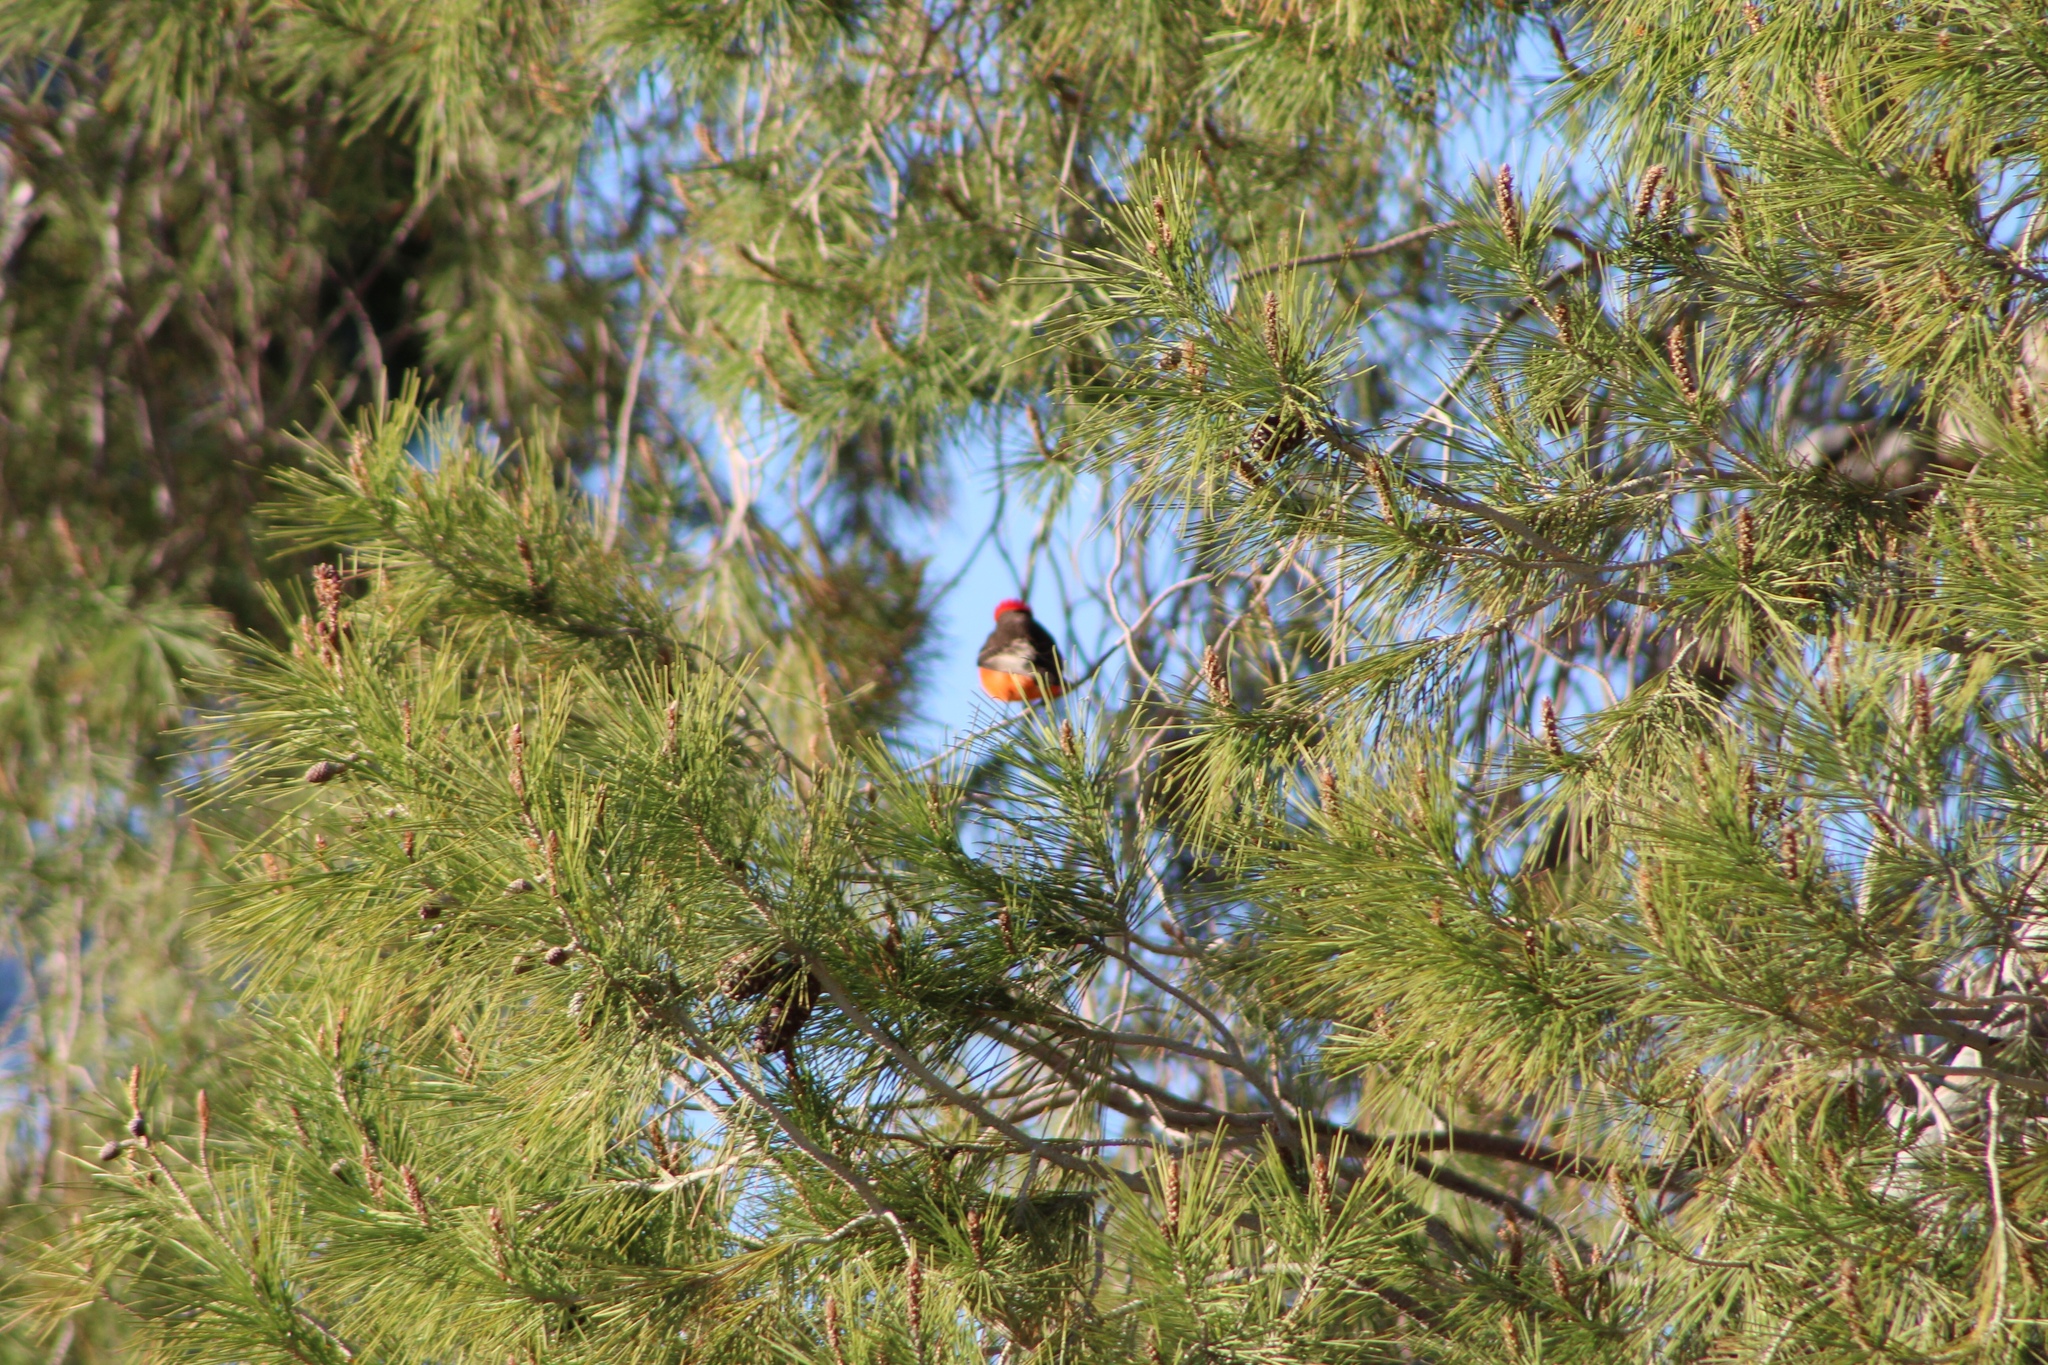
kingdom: Animalia
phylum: Chordata
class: Aves
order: Passeriformes
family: Tyrannidae
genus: Pyrocephalus
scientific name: Pyrocephalus rubinus
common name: Vermilion flycatcher
